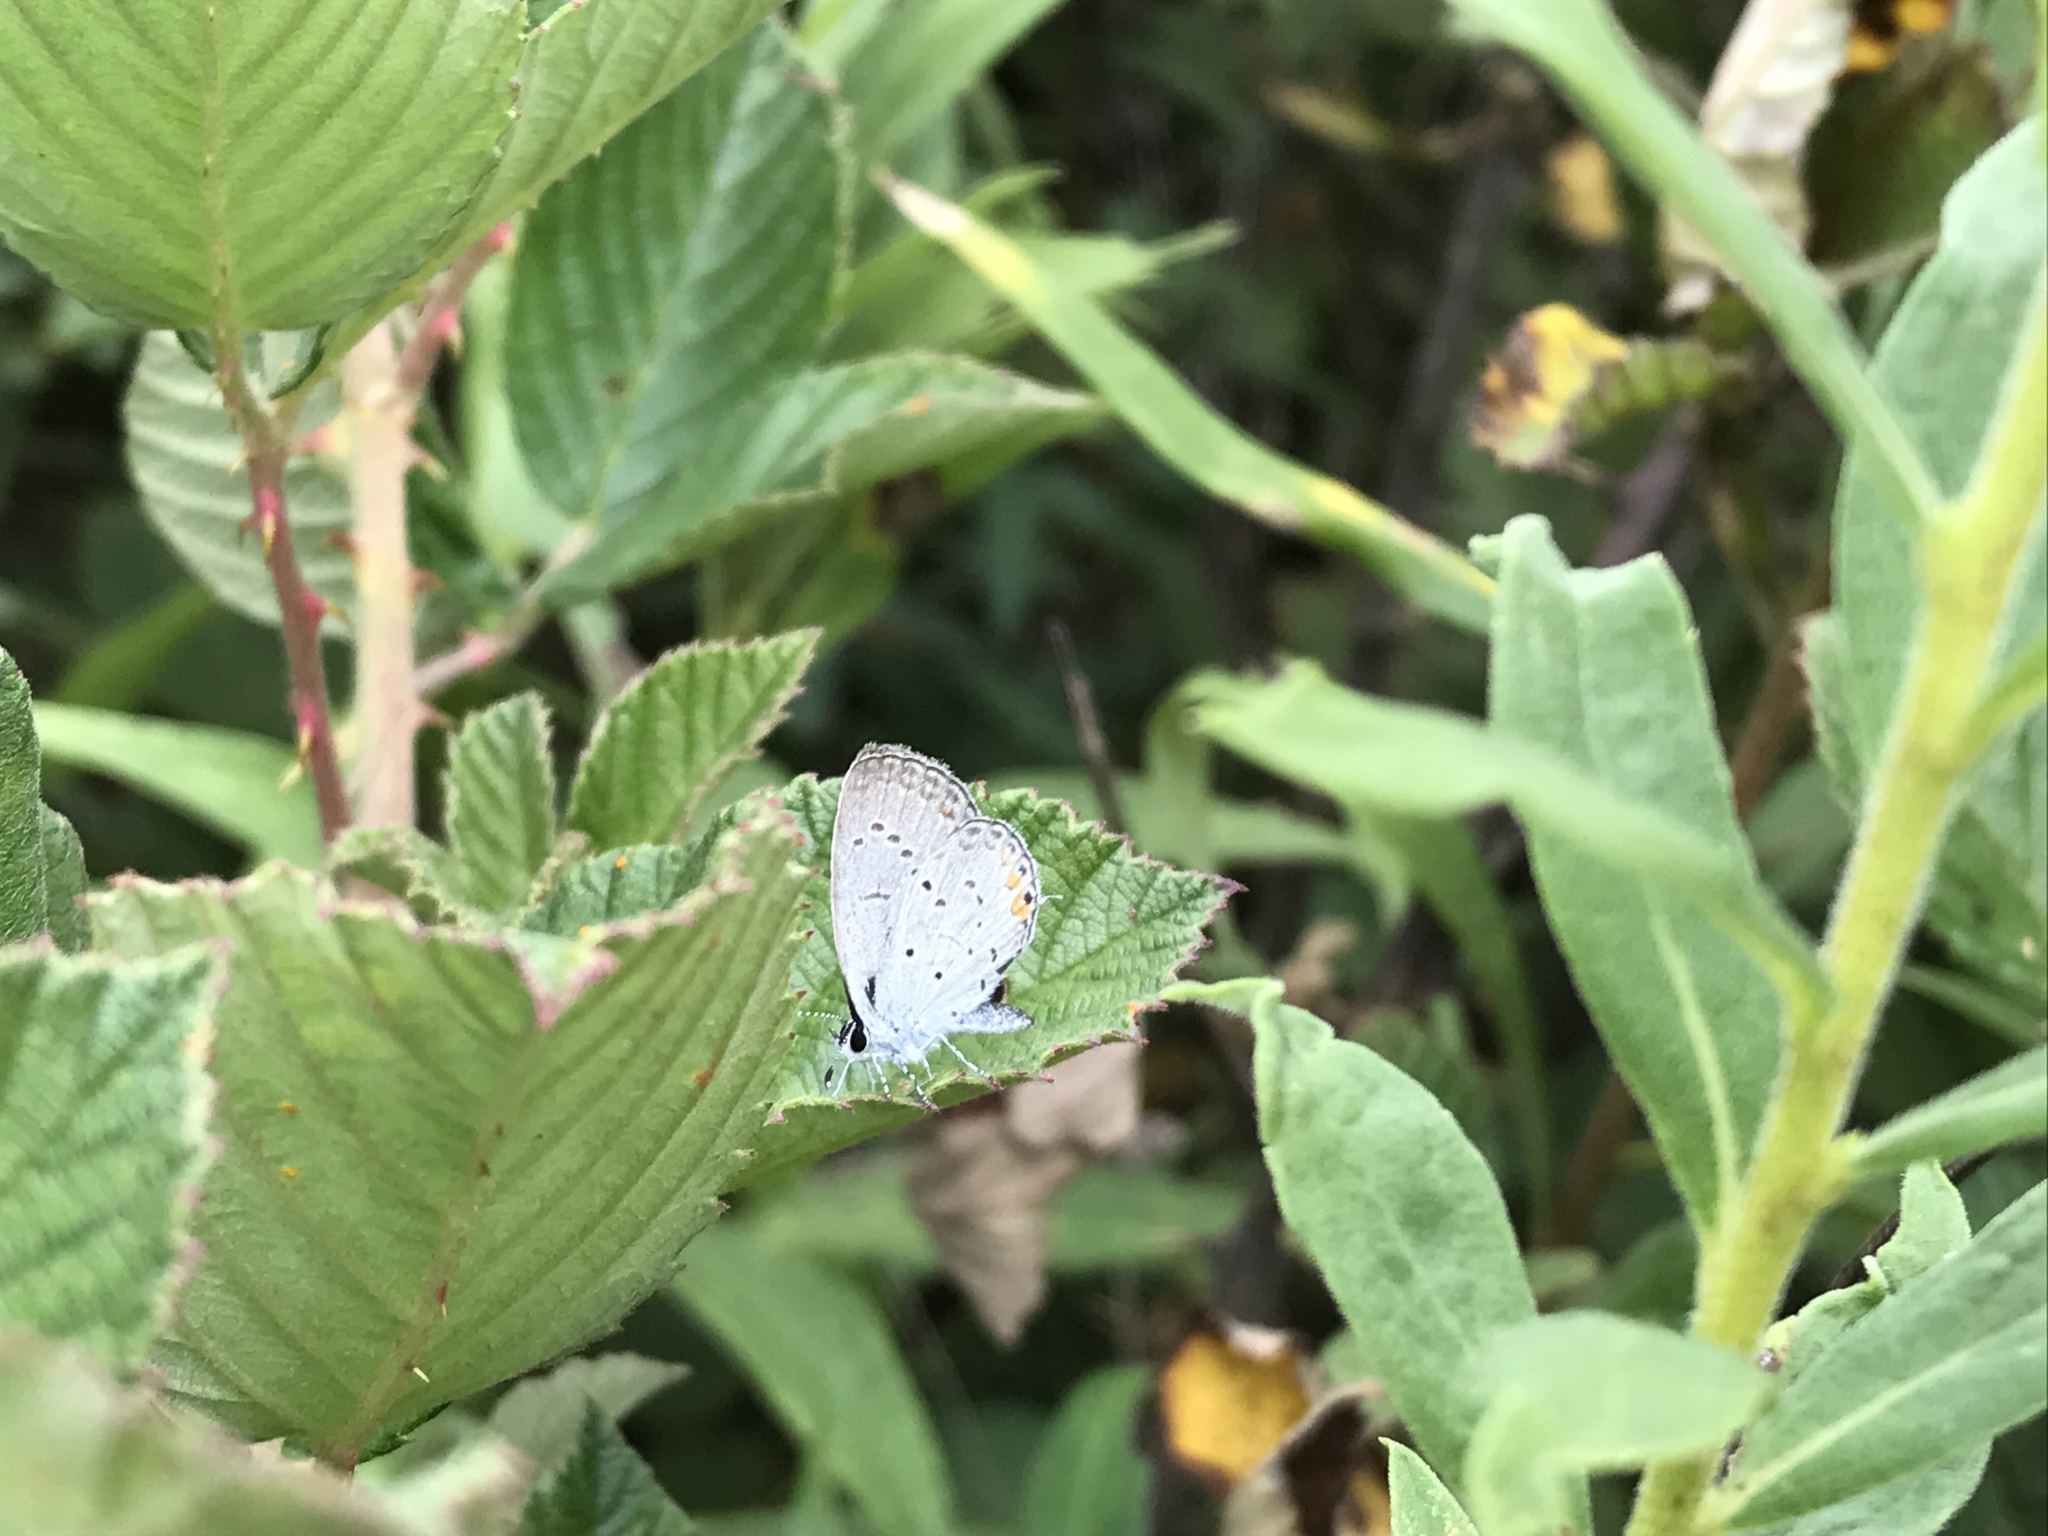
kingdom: Animalia
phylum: Arthropoda
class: Insecta
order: Lepidoptera
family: Lycaenidae
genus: Elkalyce
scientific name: Elkalyce comyntas
